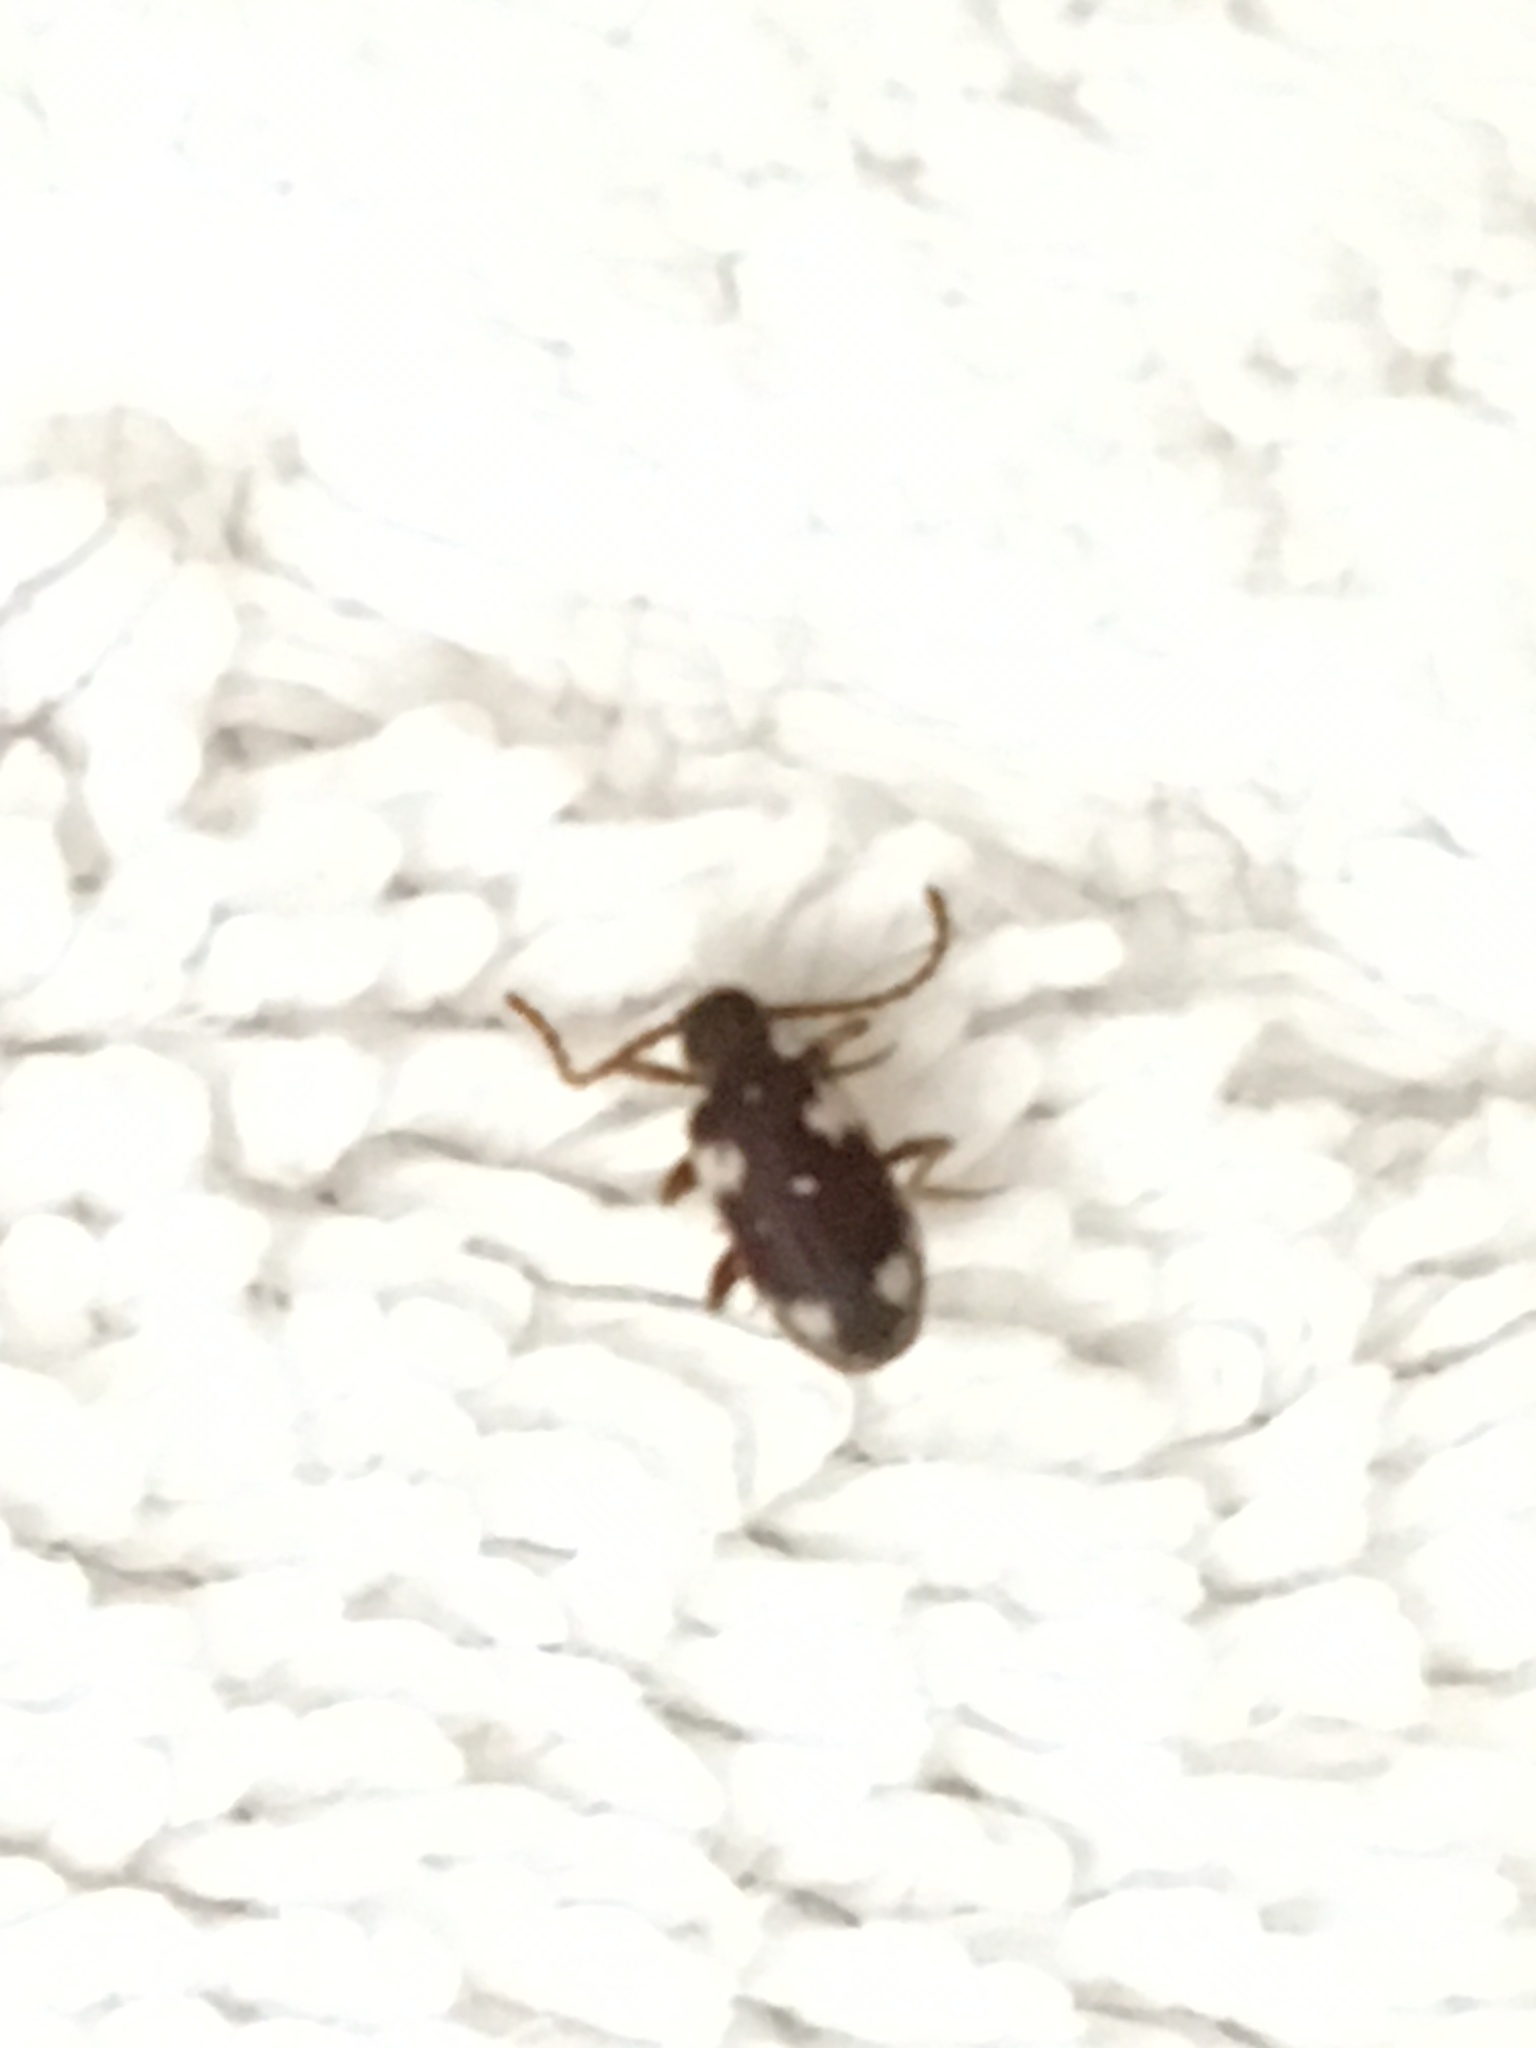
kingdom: Animalia
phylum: Arthropoda
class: Insecta
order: Coleoptera
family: Ptinidae
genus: Ptinus
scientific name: Ptinus sexpunctatus
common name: Six-spotted spider beetle
